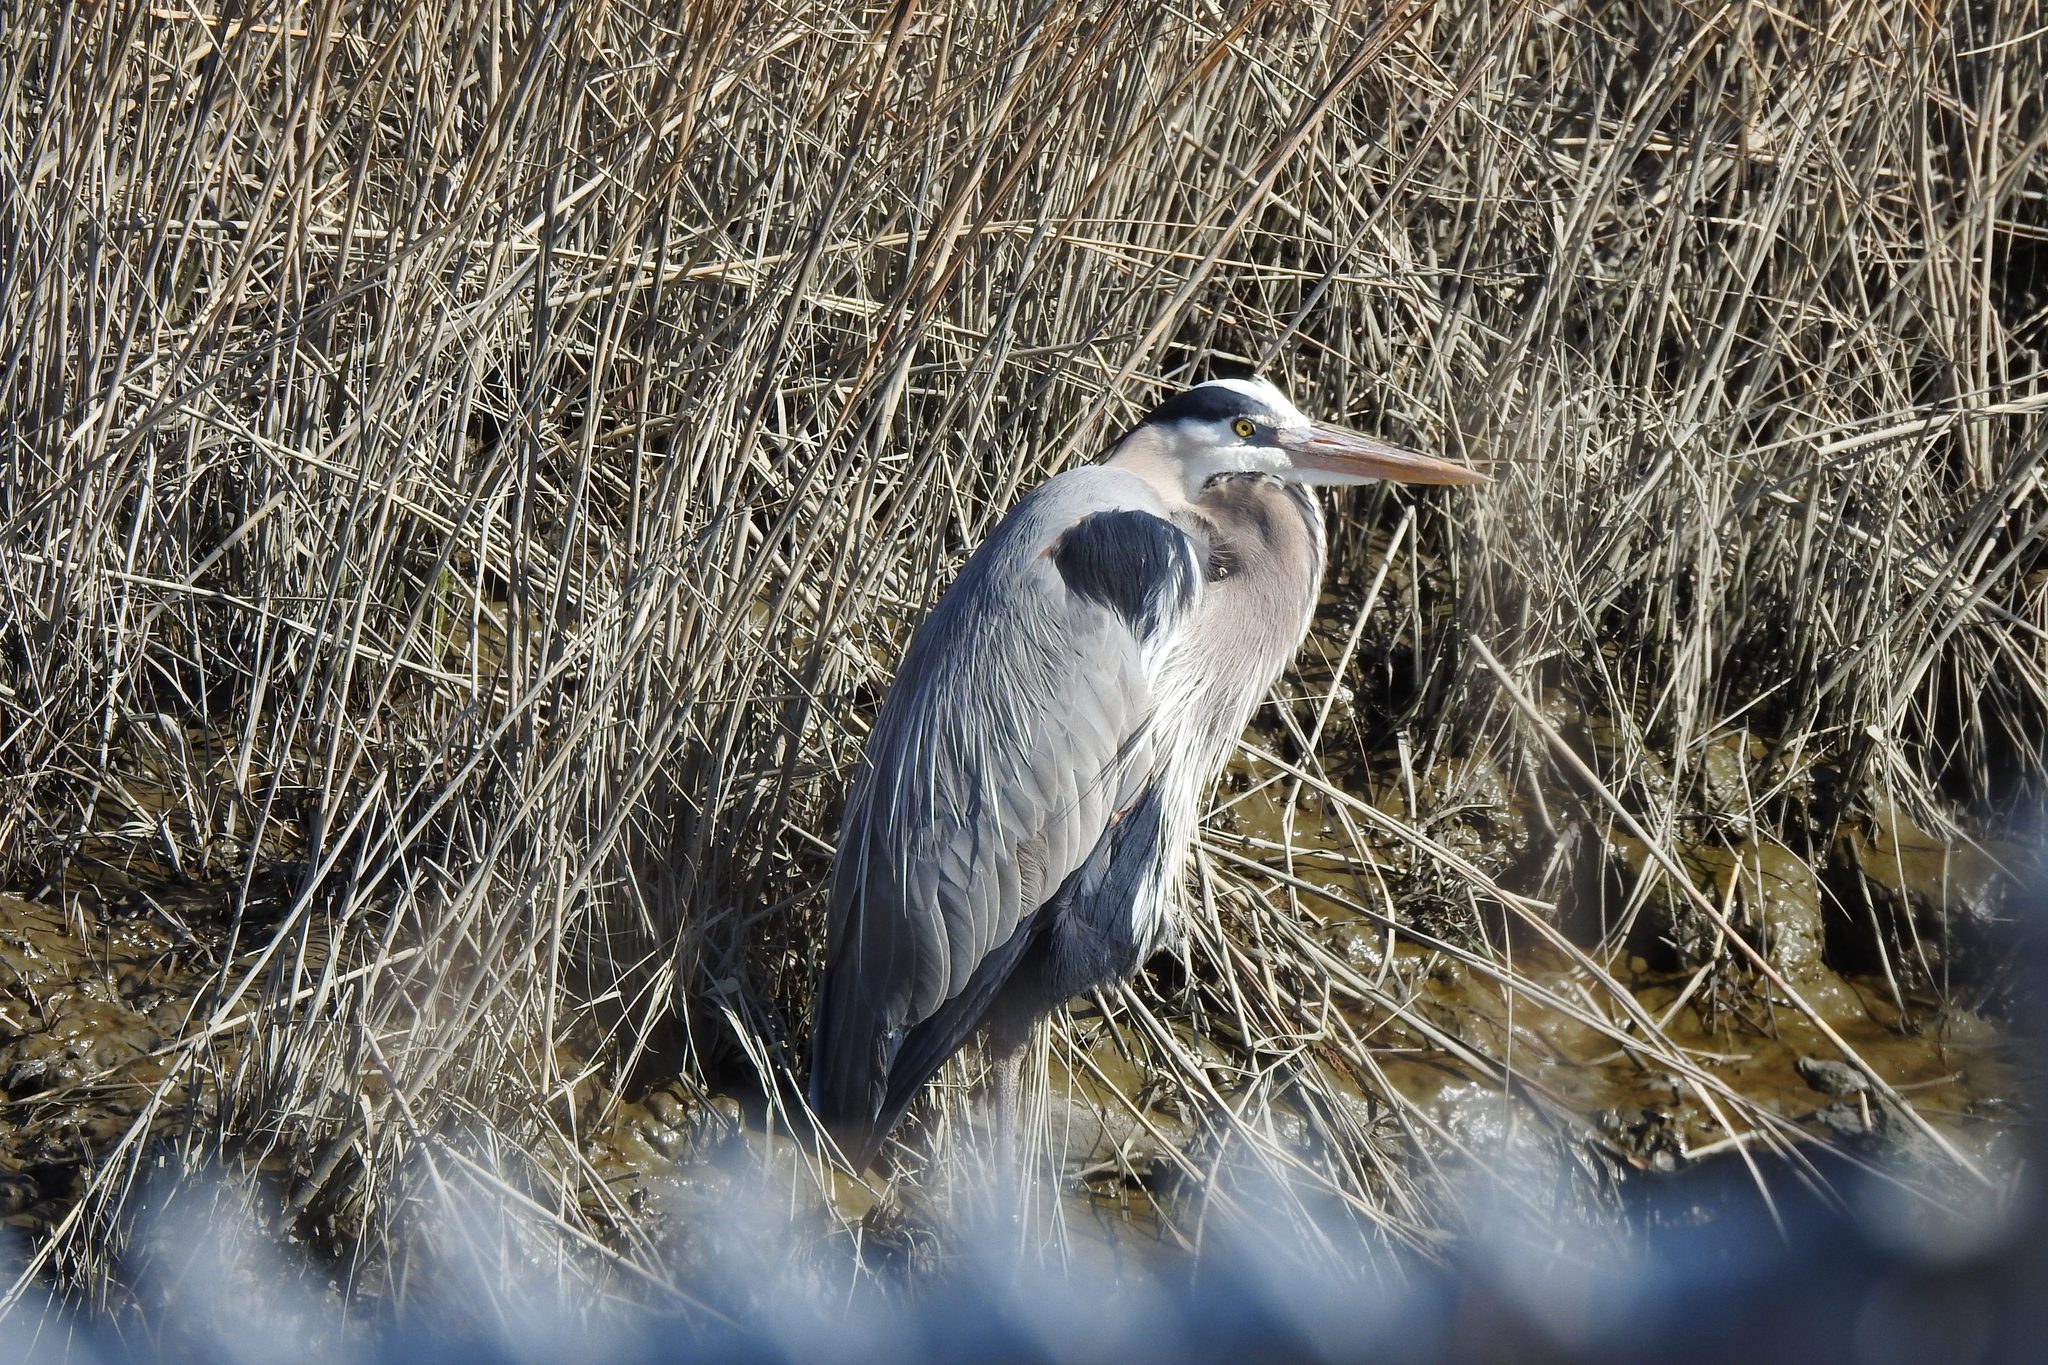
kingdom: Animalia
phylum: Chordata
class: Aves
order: Pelecaniformes
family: Ardeidae
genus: Ardea
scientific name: Ardea herodias
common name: Great blue heron
